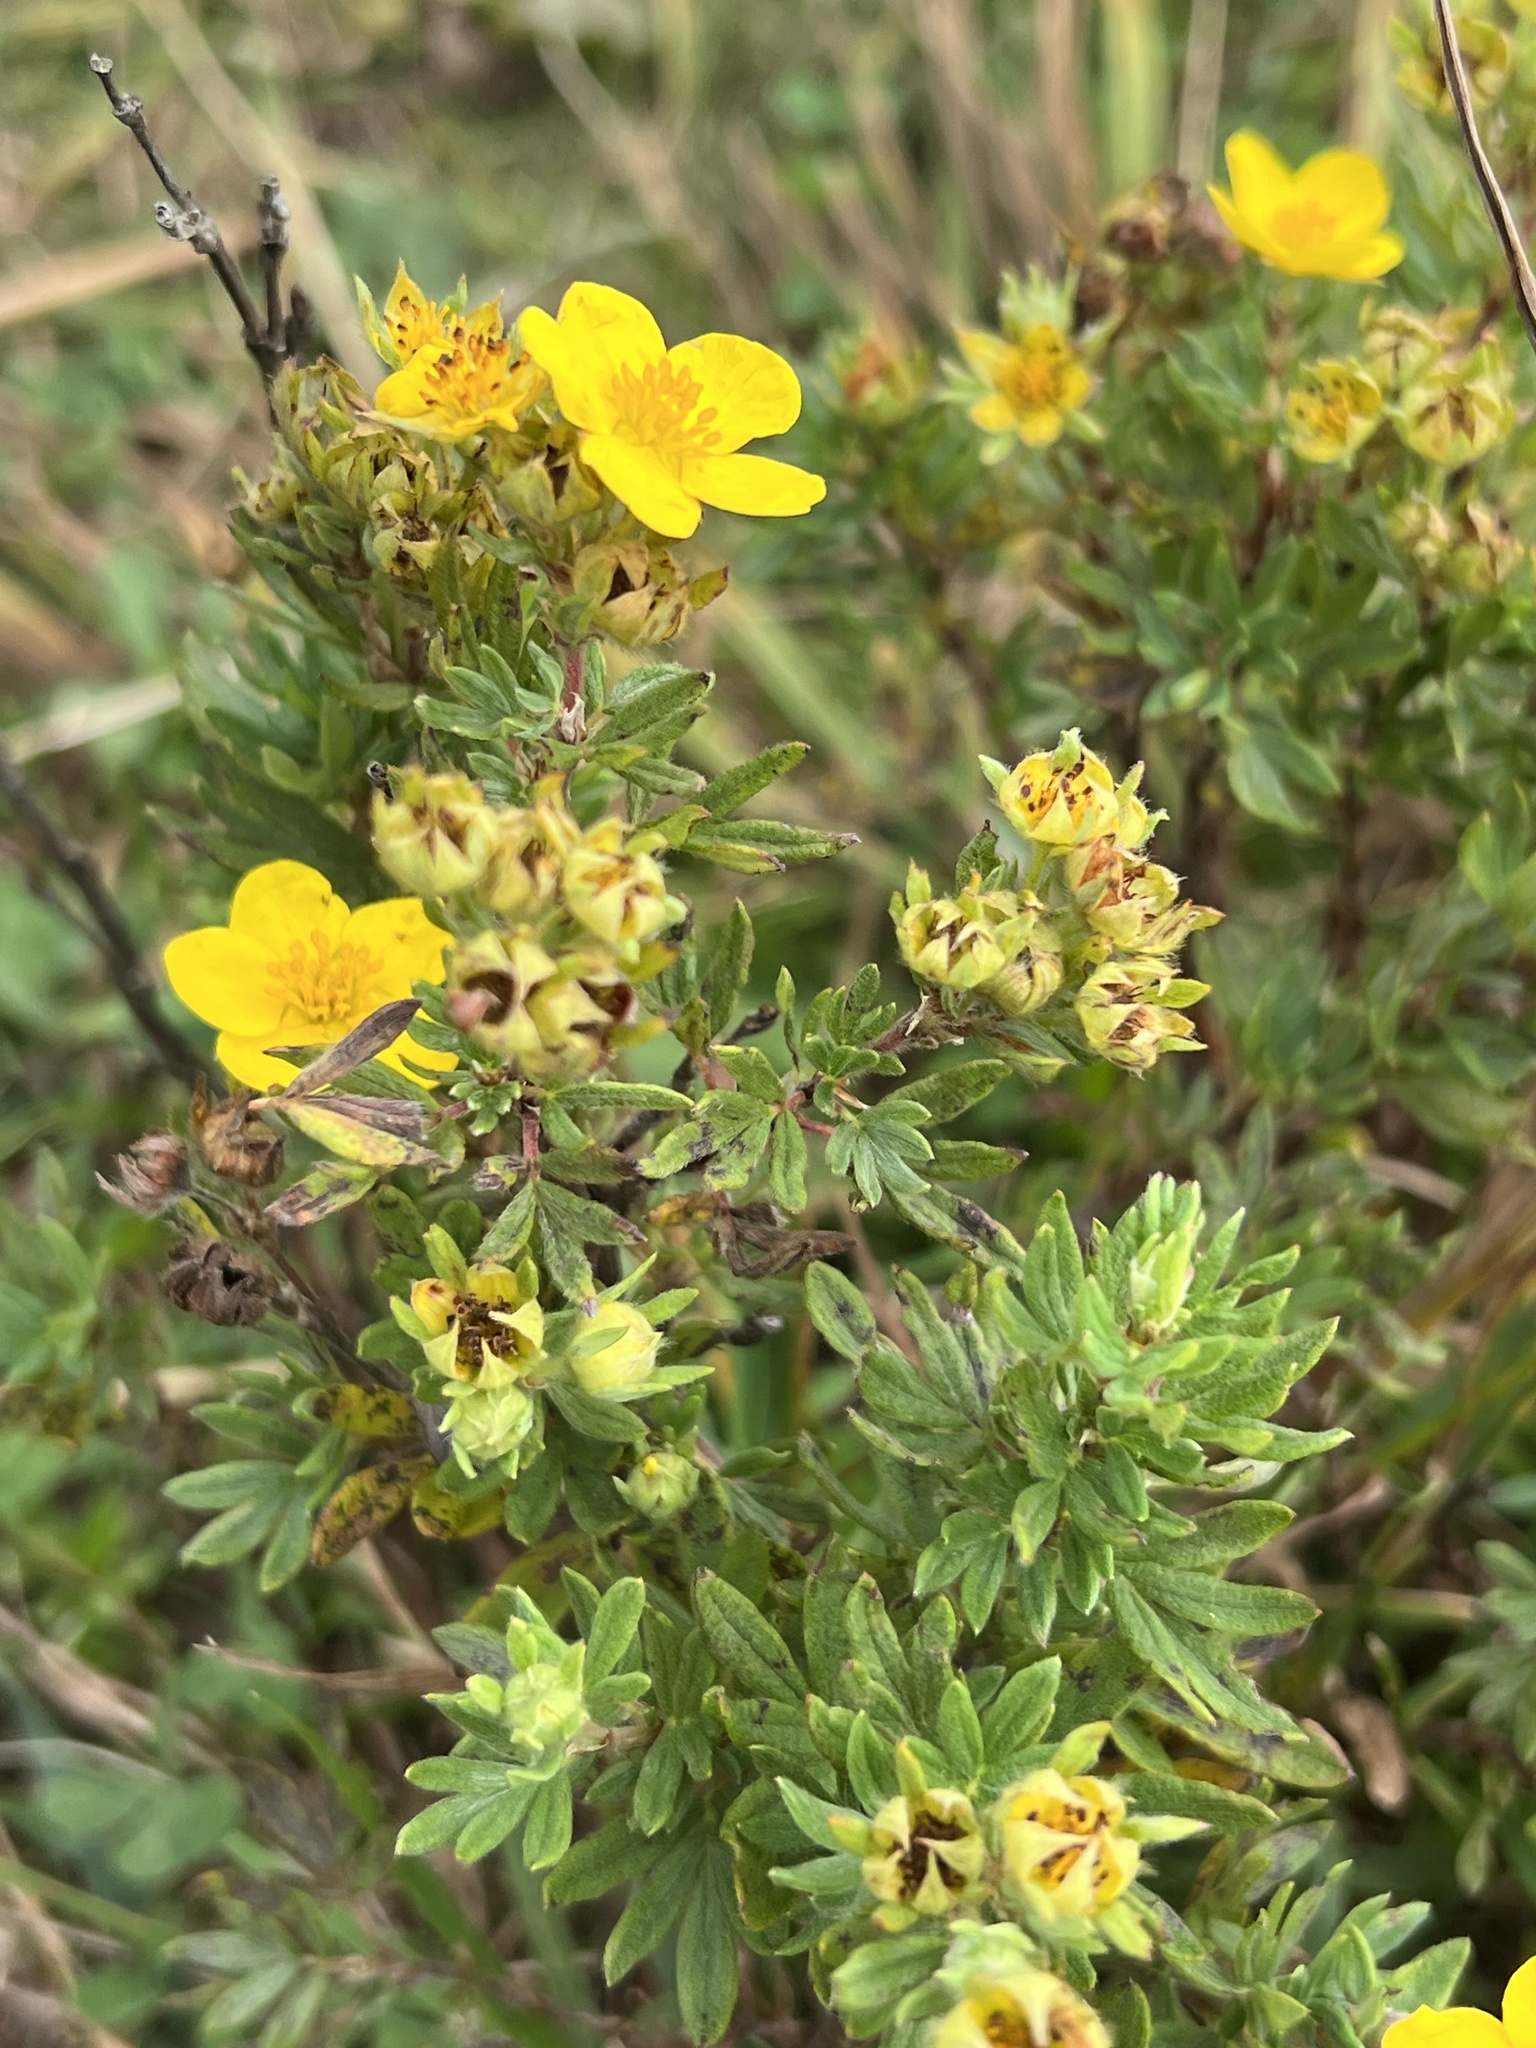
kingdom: Plantae
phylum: Tracheophyta
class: Magnoliopsida
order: Rosales
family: Rosaceae
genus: Dasiphora
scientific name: Dasiphora fruticosa
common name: Shrubby cinquefoil
